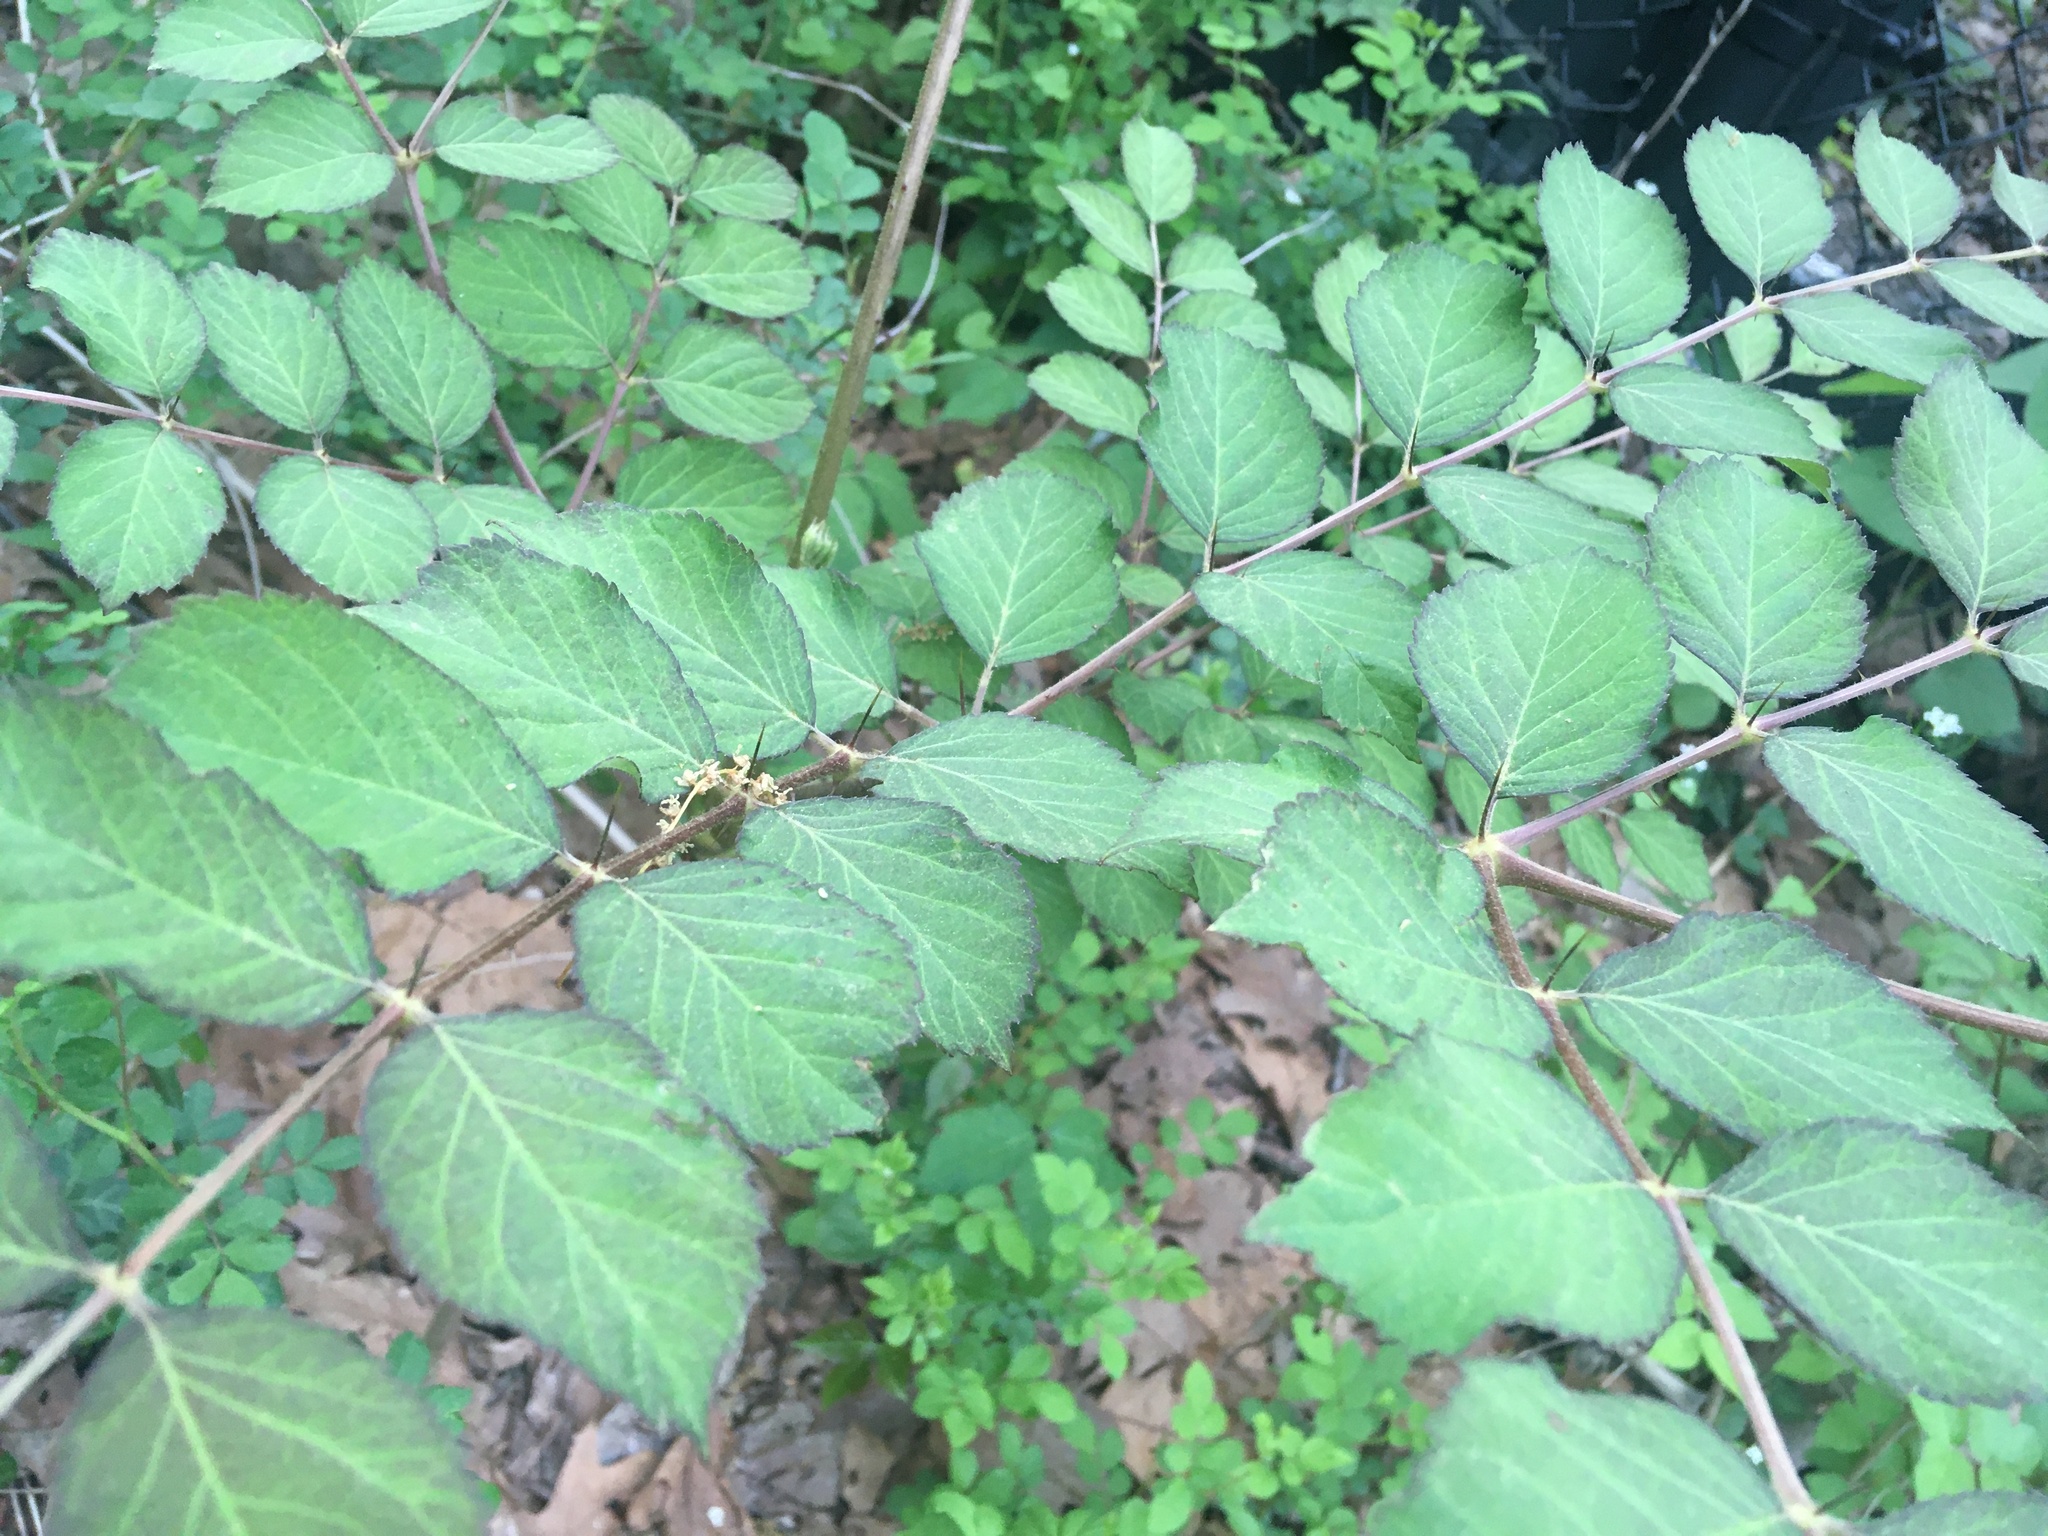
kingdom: Plantae
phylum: Tracheophyta
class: Magnoliopsida
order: Apiales
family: Araliaceae
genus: Aralia
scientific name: Aralia elata
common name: Japanese angelica-tree
